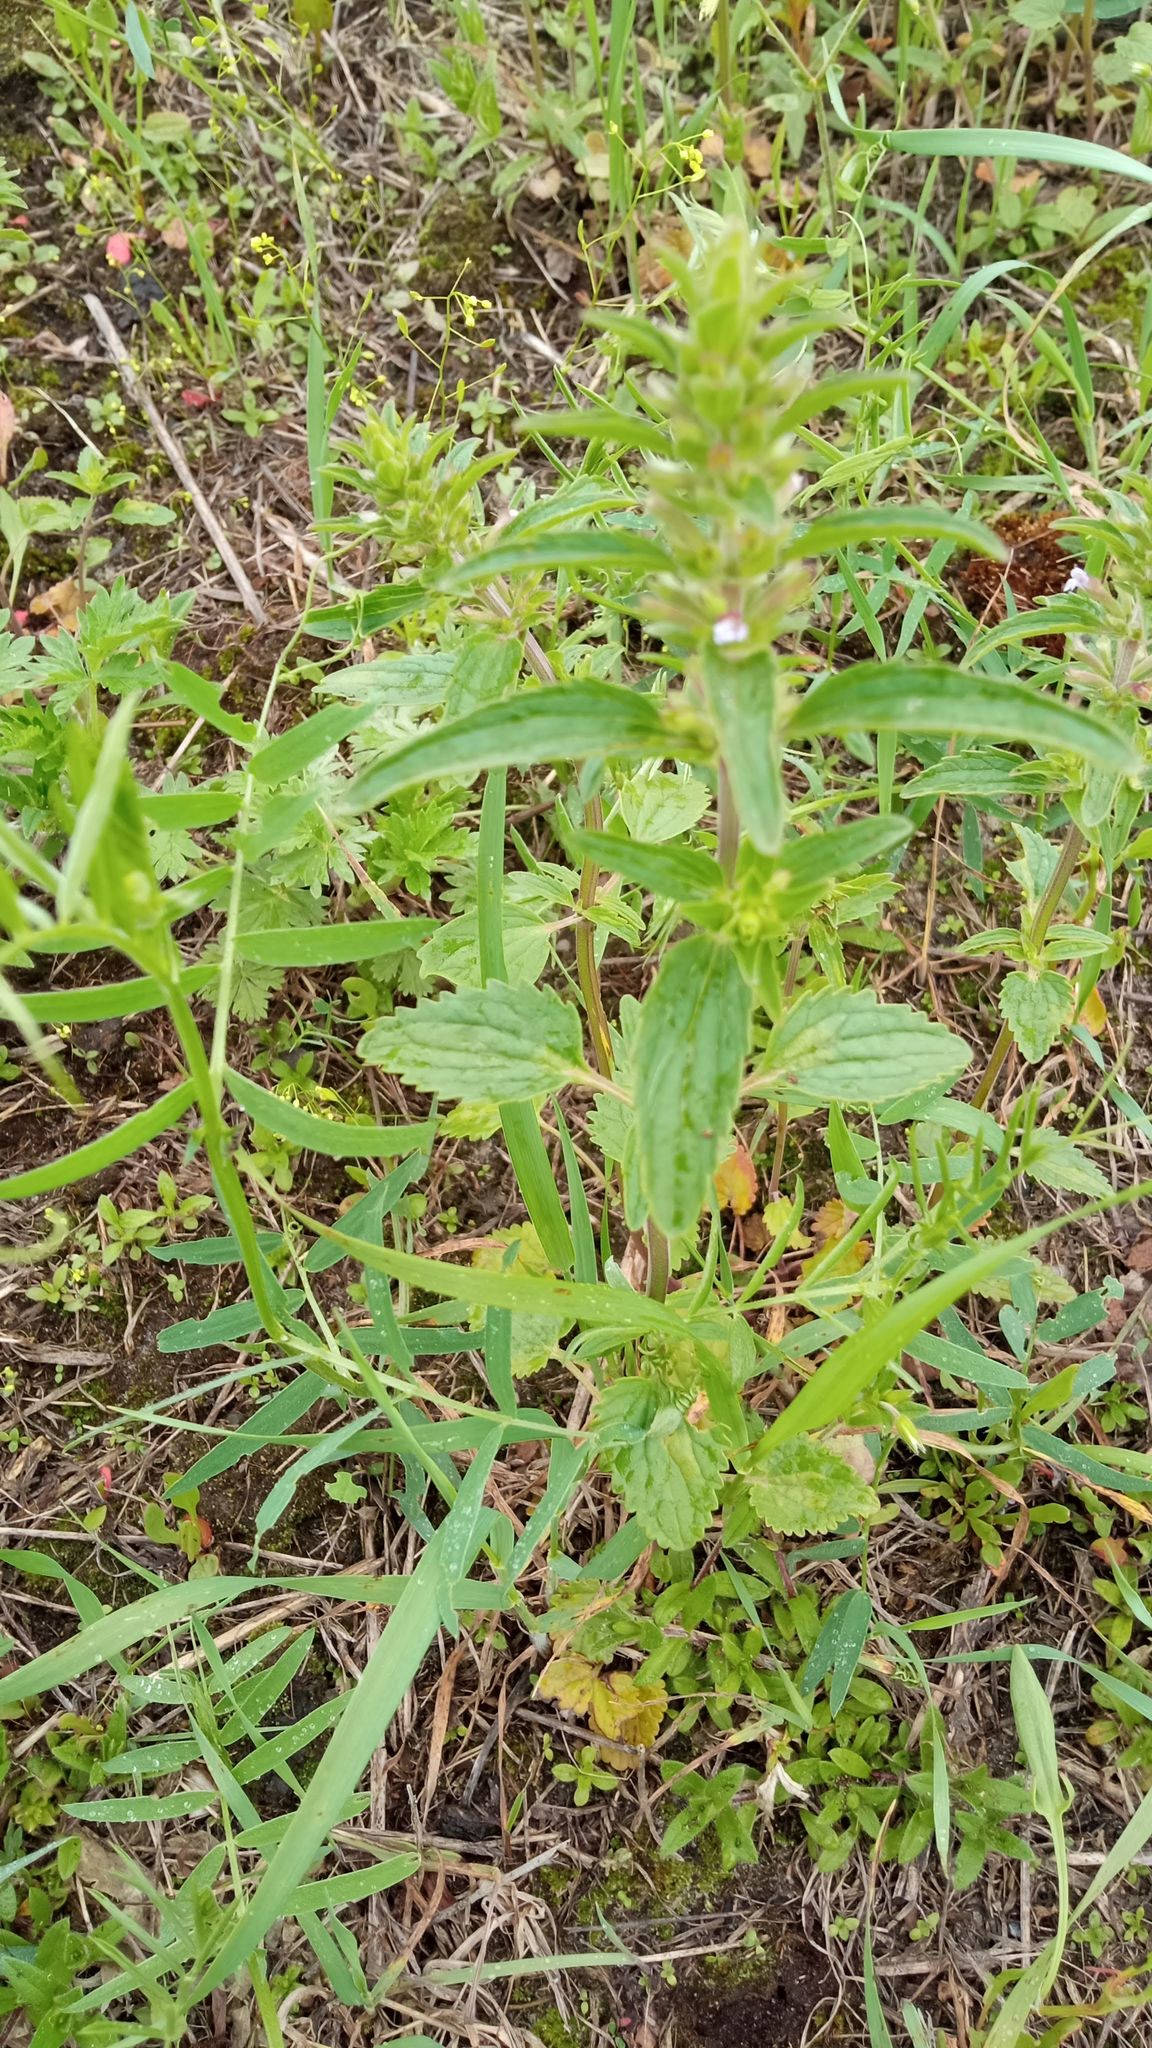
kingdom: Plantae
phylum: Tracheophyta
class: Magnoliopsida
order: Lamiales
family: Lamiaceae
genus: Dracocephalum
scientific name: Dracocephalum thymiflorum
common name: Thymeleaf dragonhead
